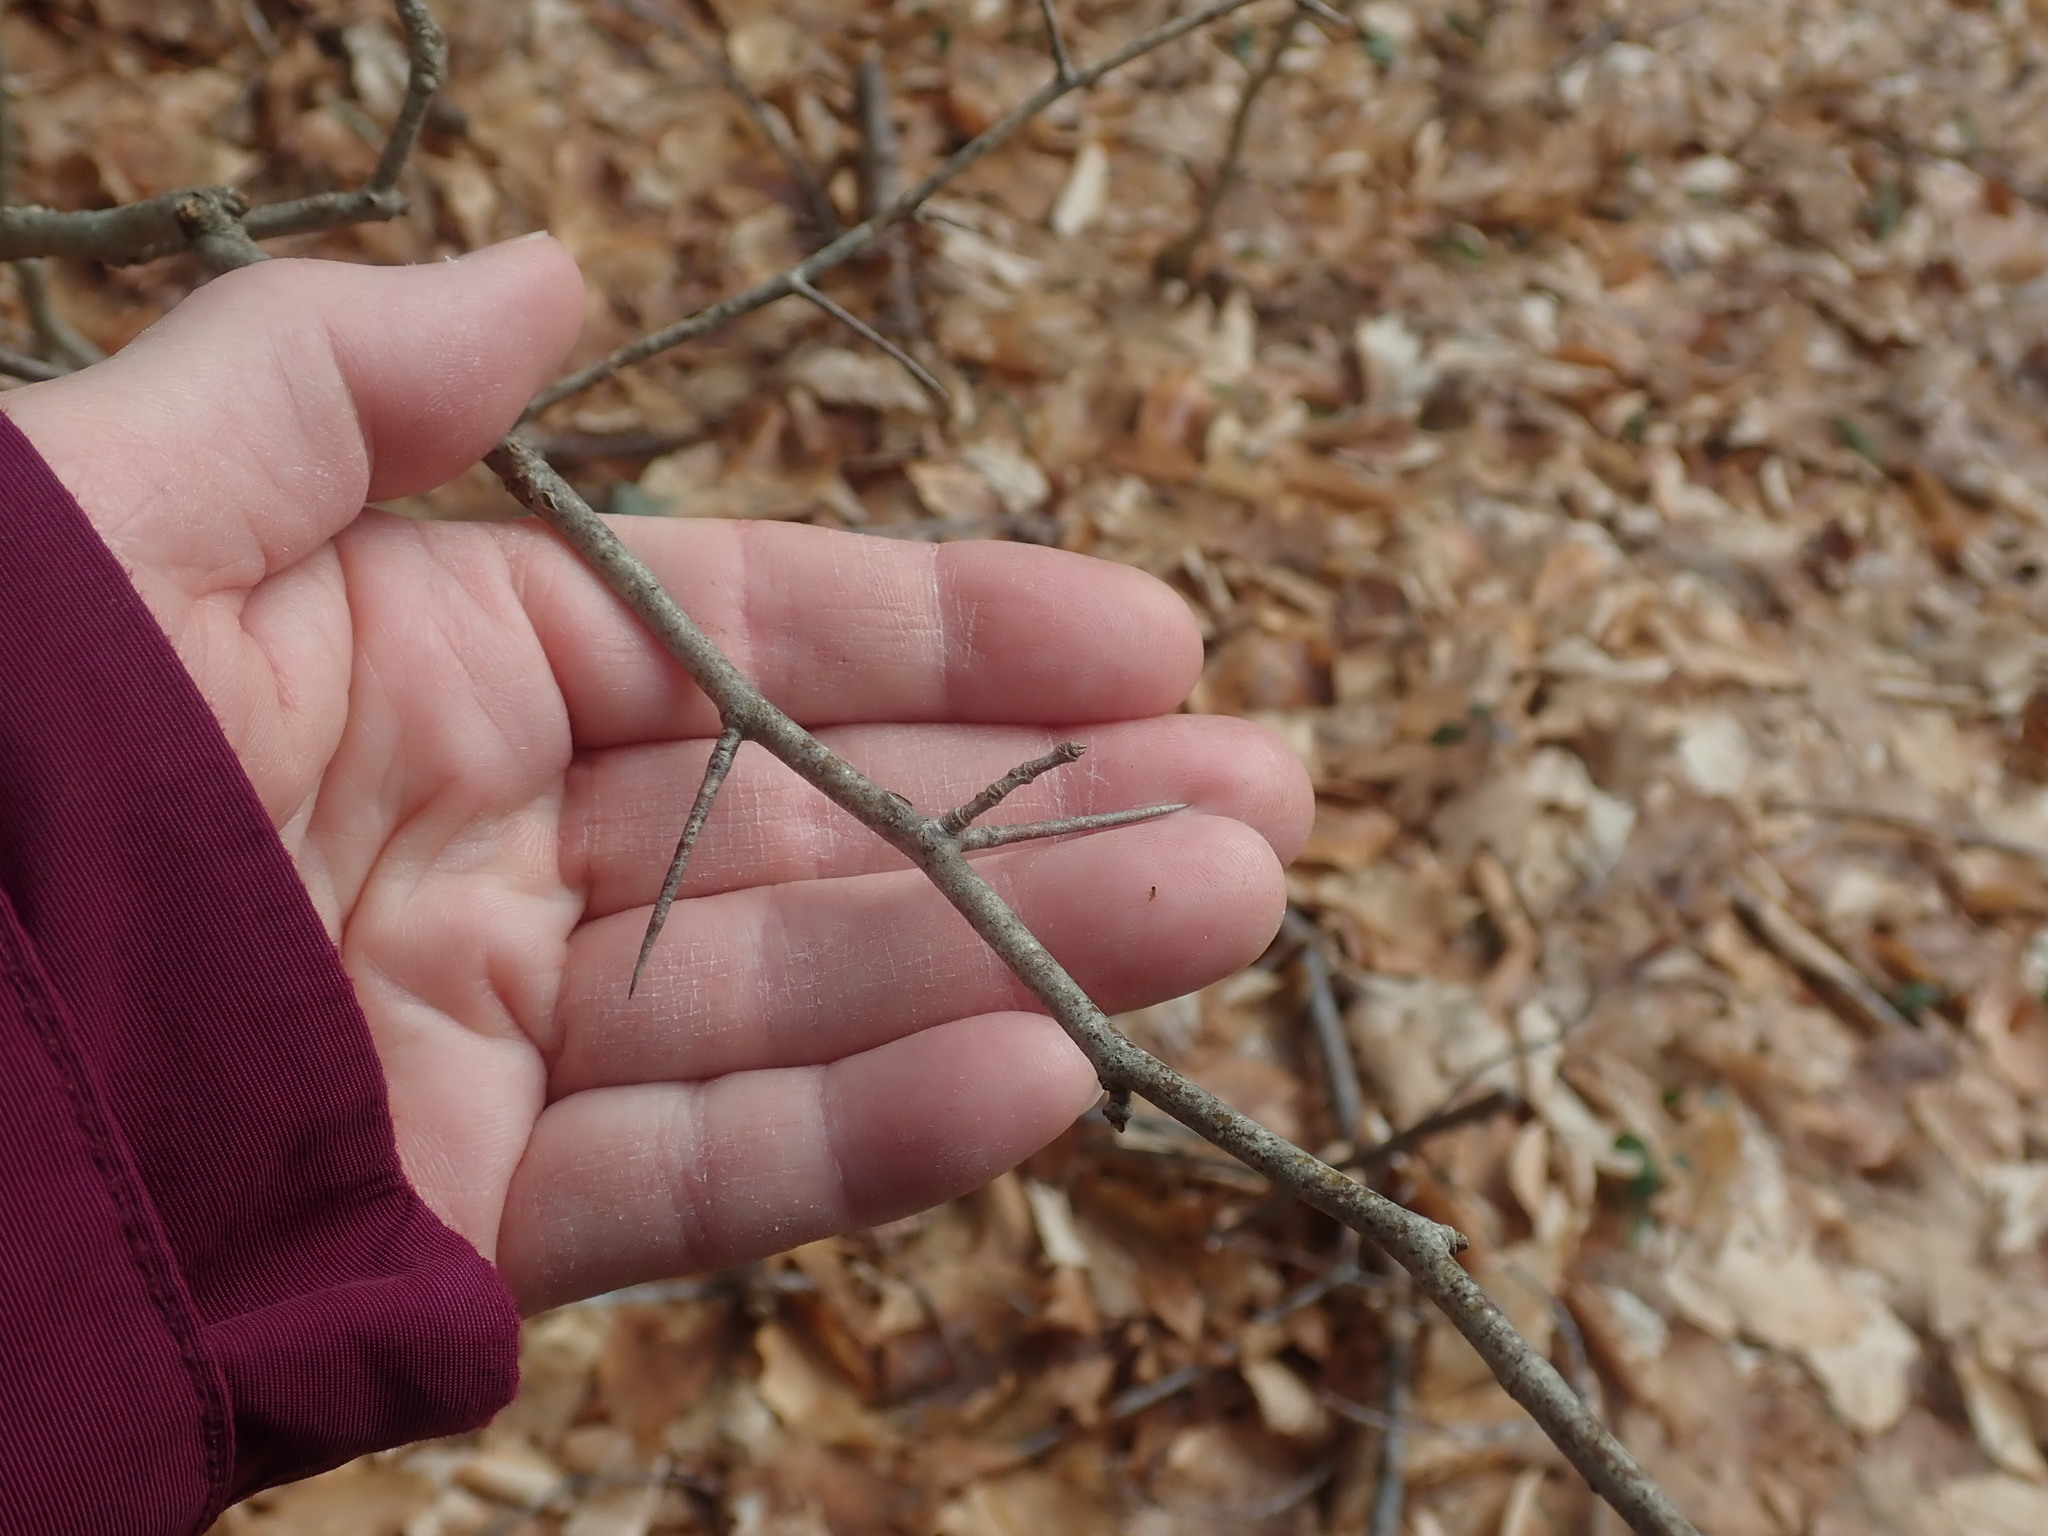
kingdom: Plantae
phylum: Tracheophyta
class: Magnoliopsida
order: Rosales
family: Rosaceae
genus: Crataegus
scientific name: Crataegus
